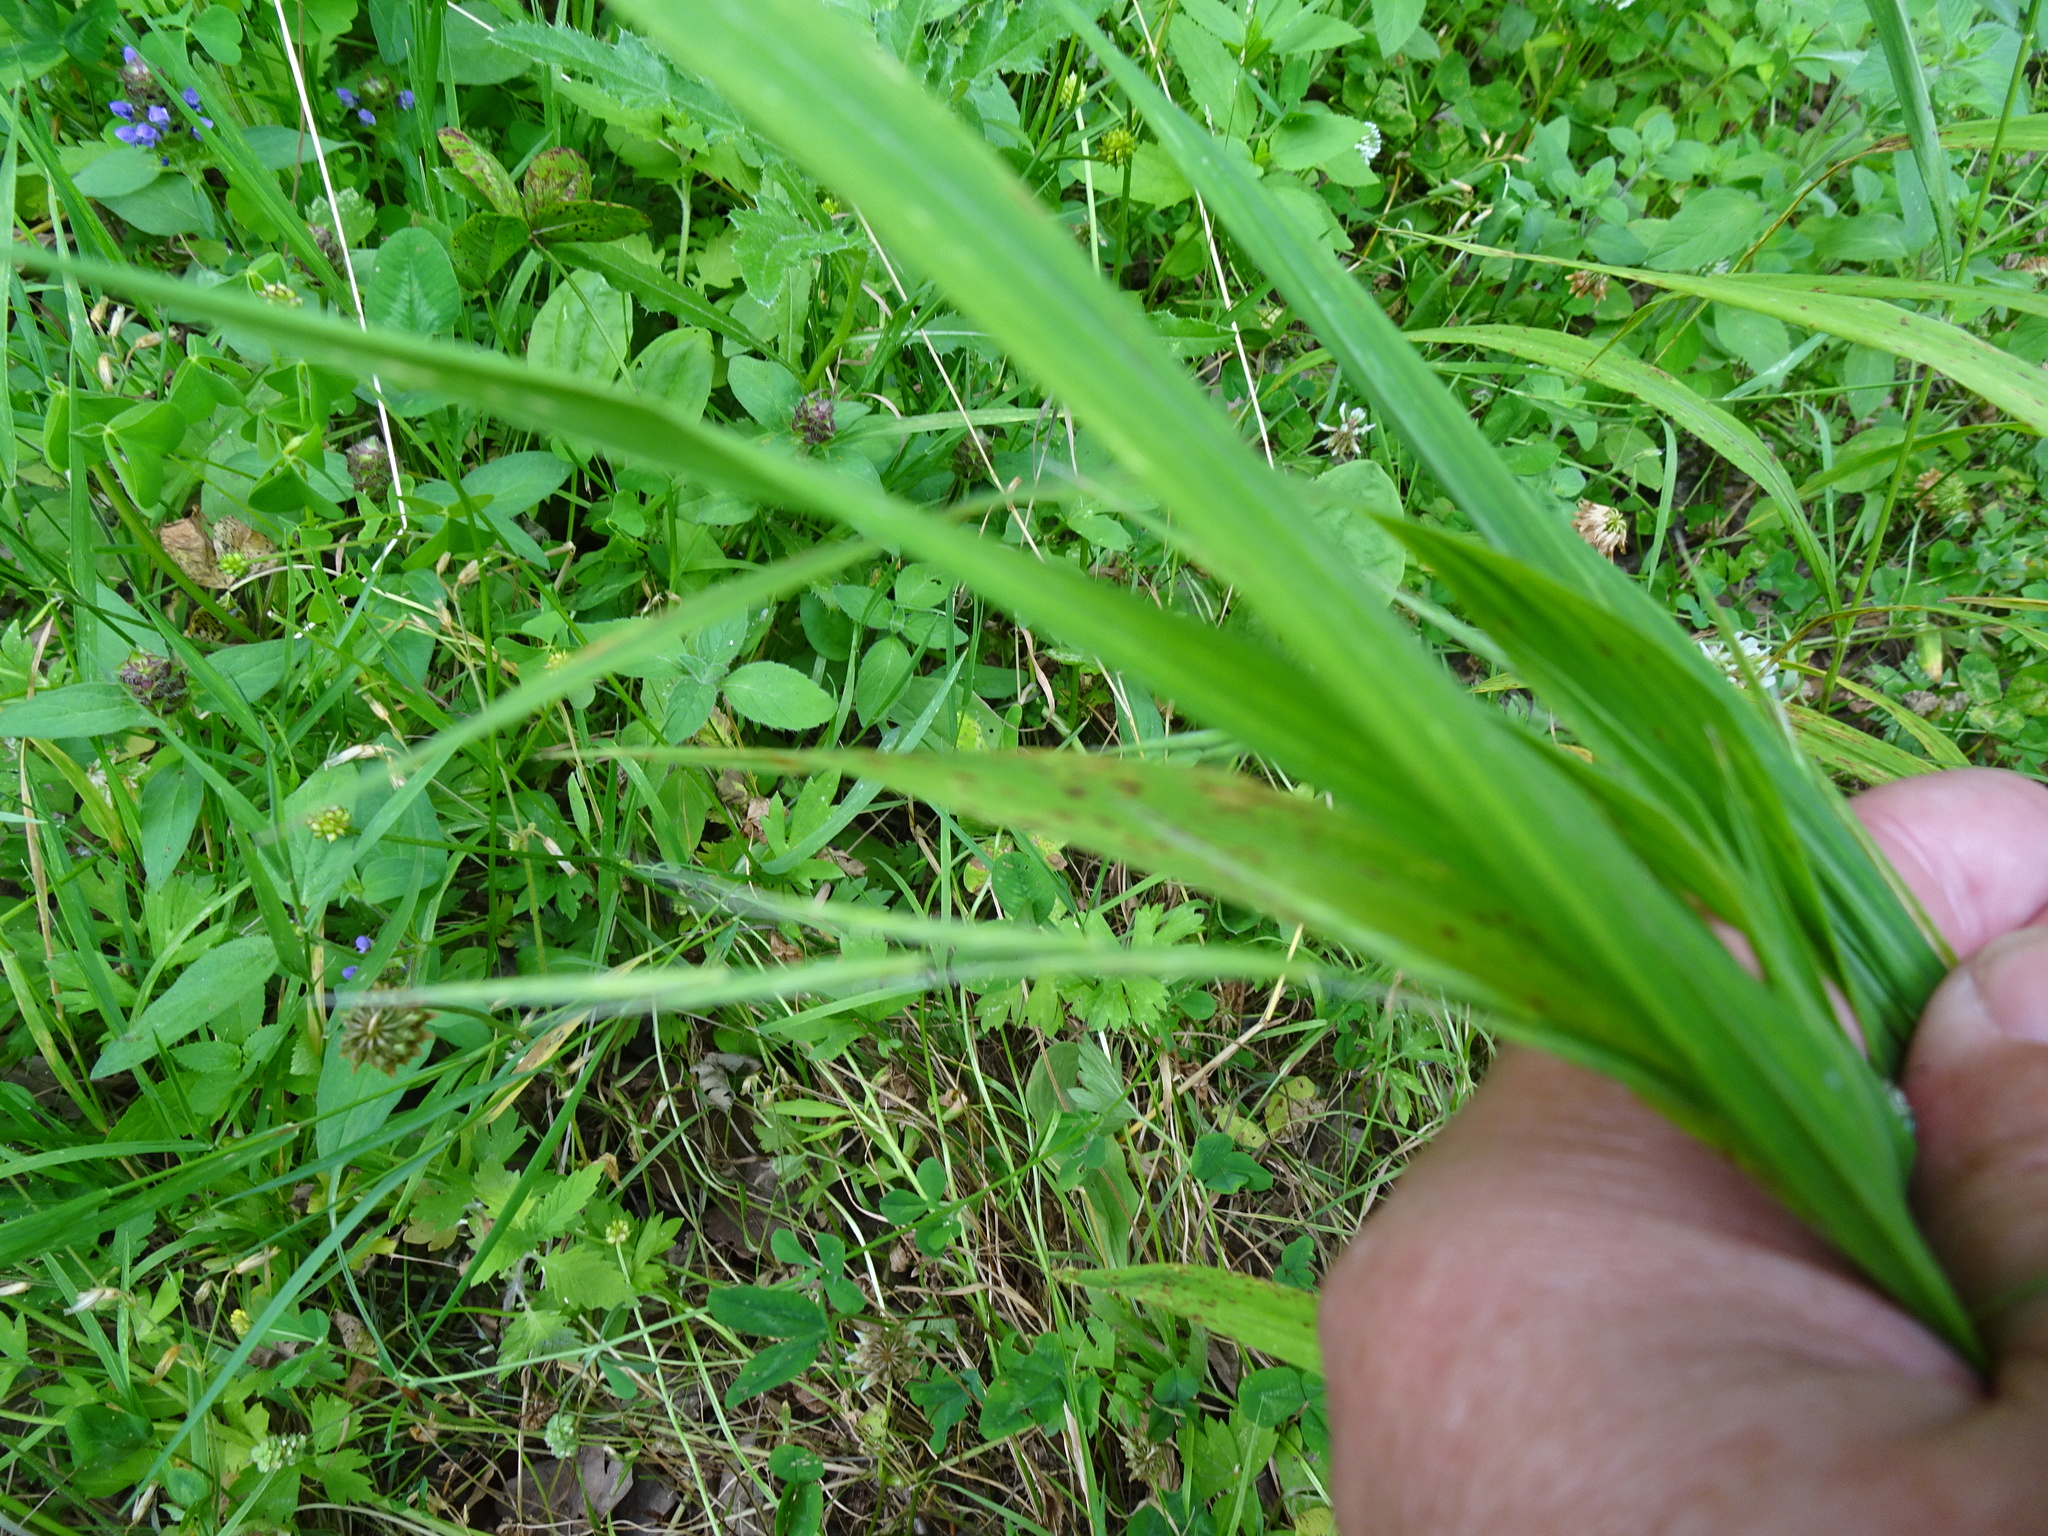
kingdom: Plantae
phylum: Tracheophyta
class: Liliopsida
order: Poales
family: Poaceae
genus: Brachypodium
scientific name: Brachypodium sylvaticum
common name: False-brome
